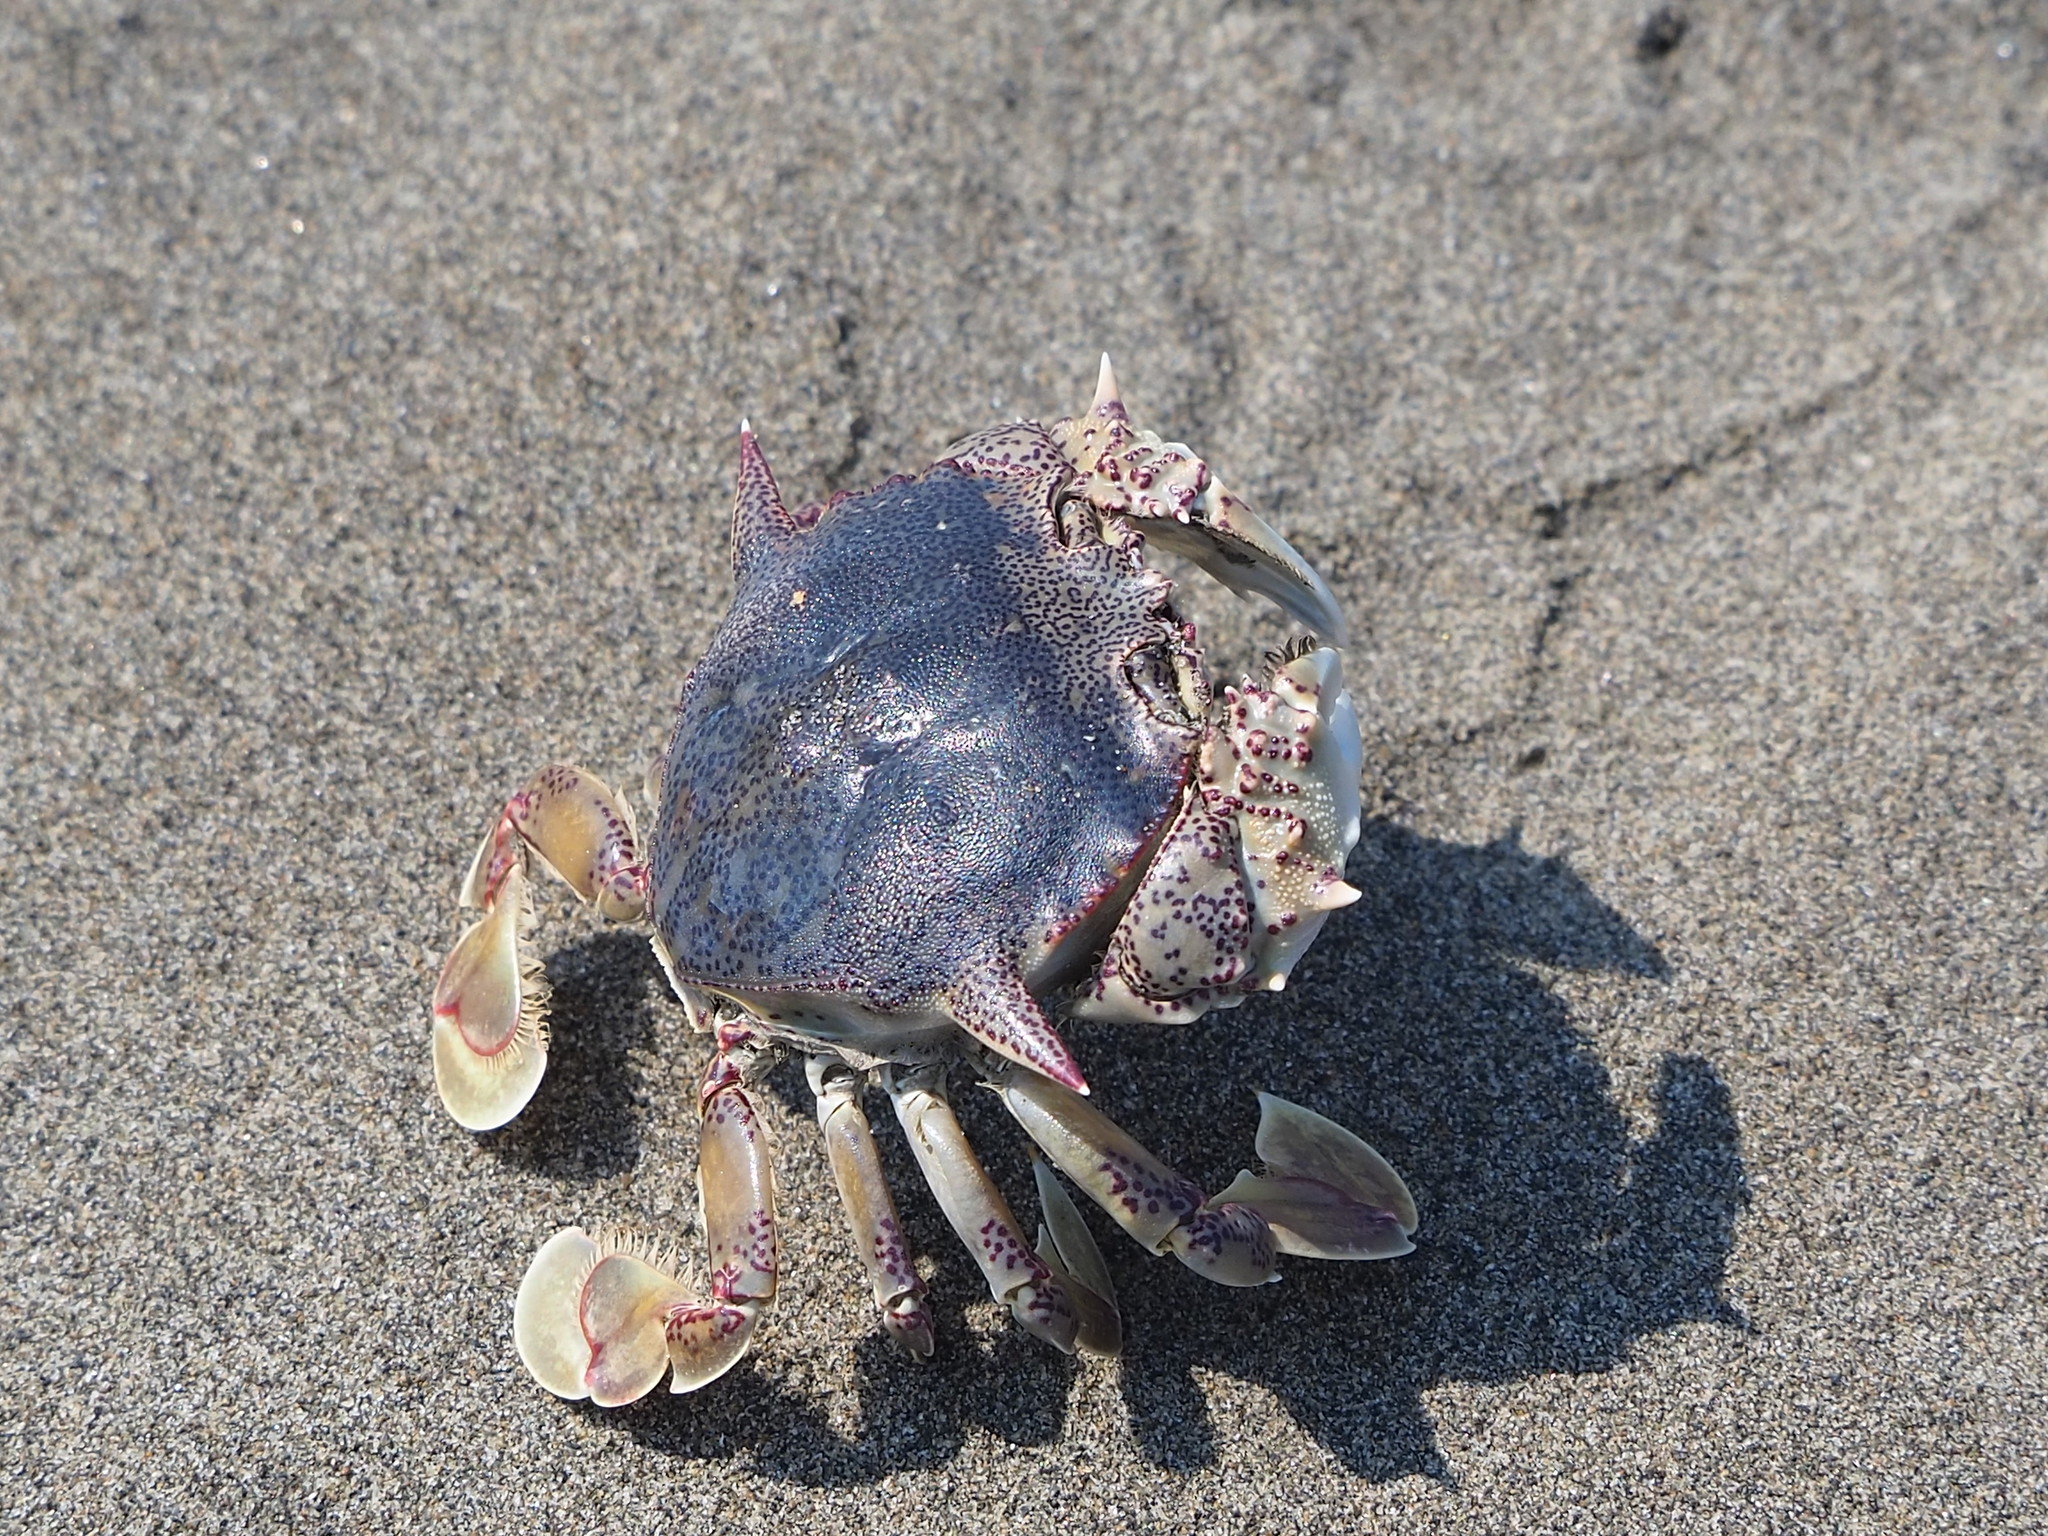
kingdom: Animalia
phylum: Arthropoda
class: Malacostraca
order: Decapoda
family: Matutidae
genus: Matuta
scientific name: Matuta victor
